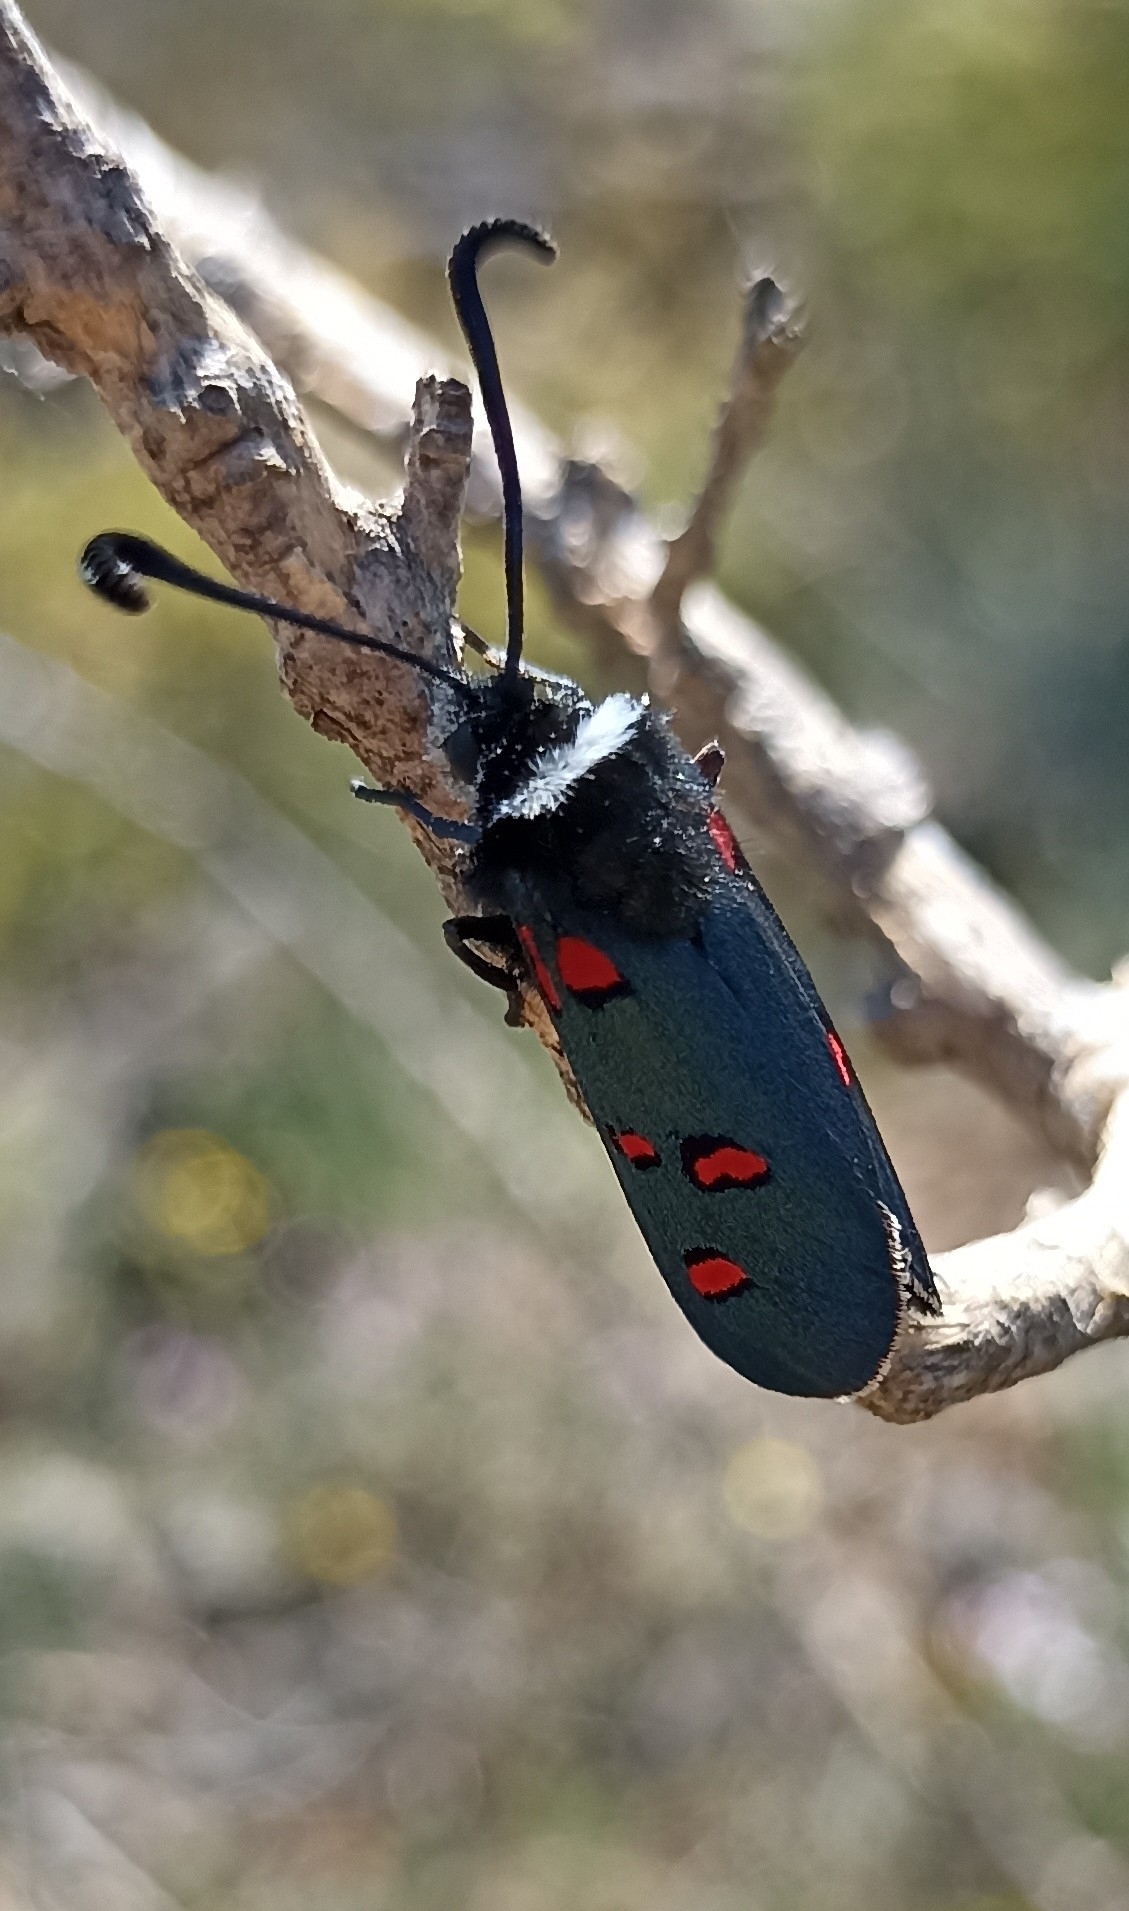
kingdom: Animalia
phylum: Arthropoda
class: Insecta
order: Lepidoptera
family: Zygaenidae
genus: Zygaena
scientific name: Zygaena lavandulae
